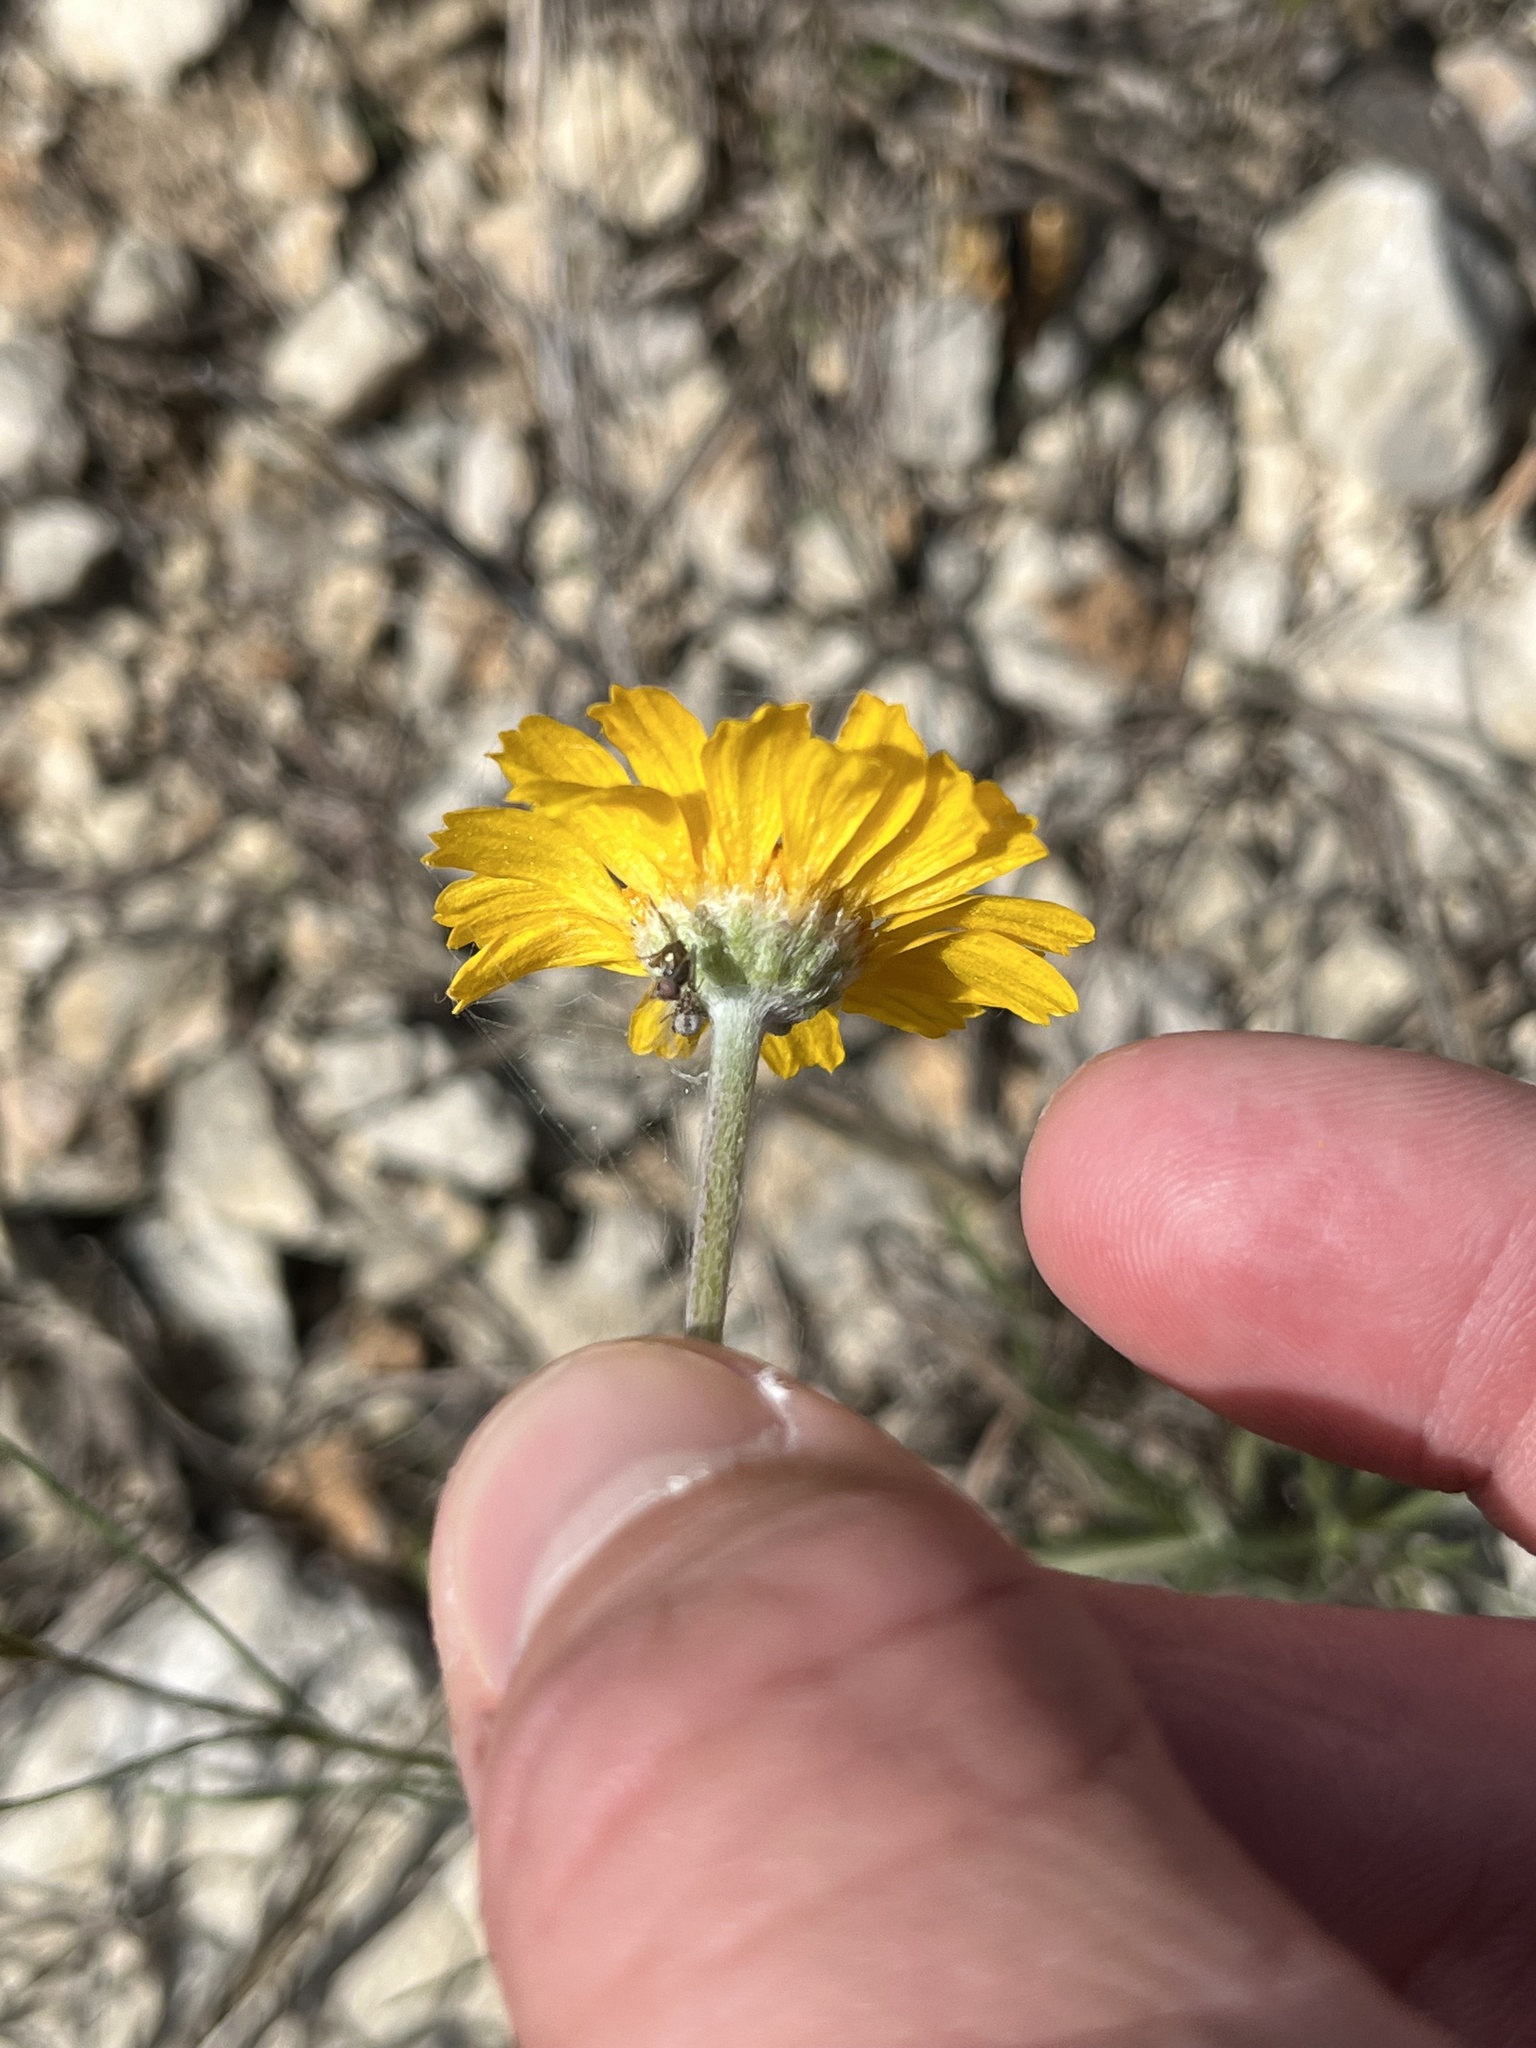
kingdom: Plantae
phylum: Tracheophyta
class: Magnoliopsida
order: Asterales
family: Asteraceae
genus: Tetraneuris
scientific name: Tetraneuris scaposa
